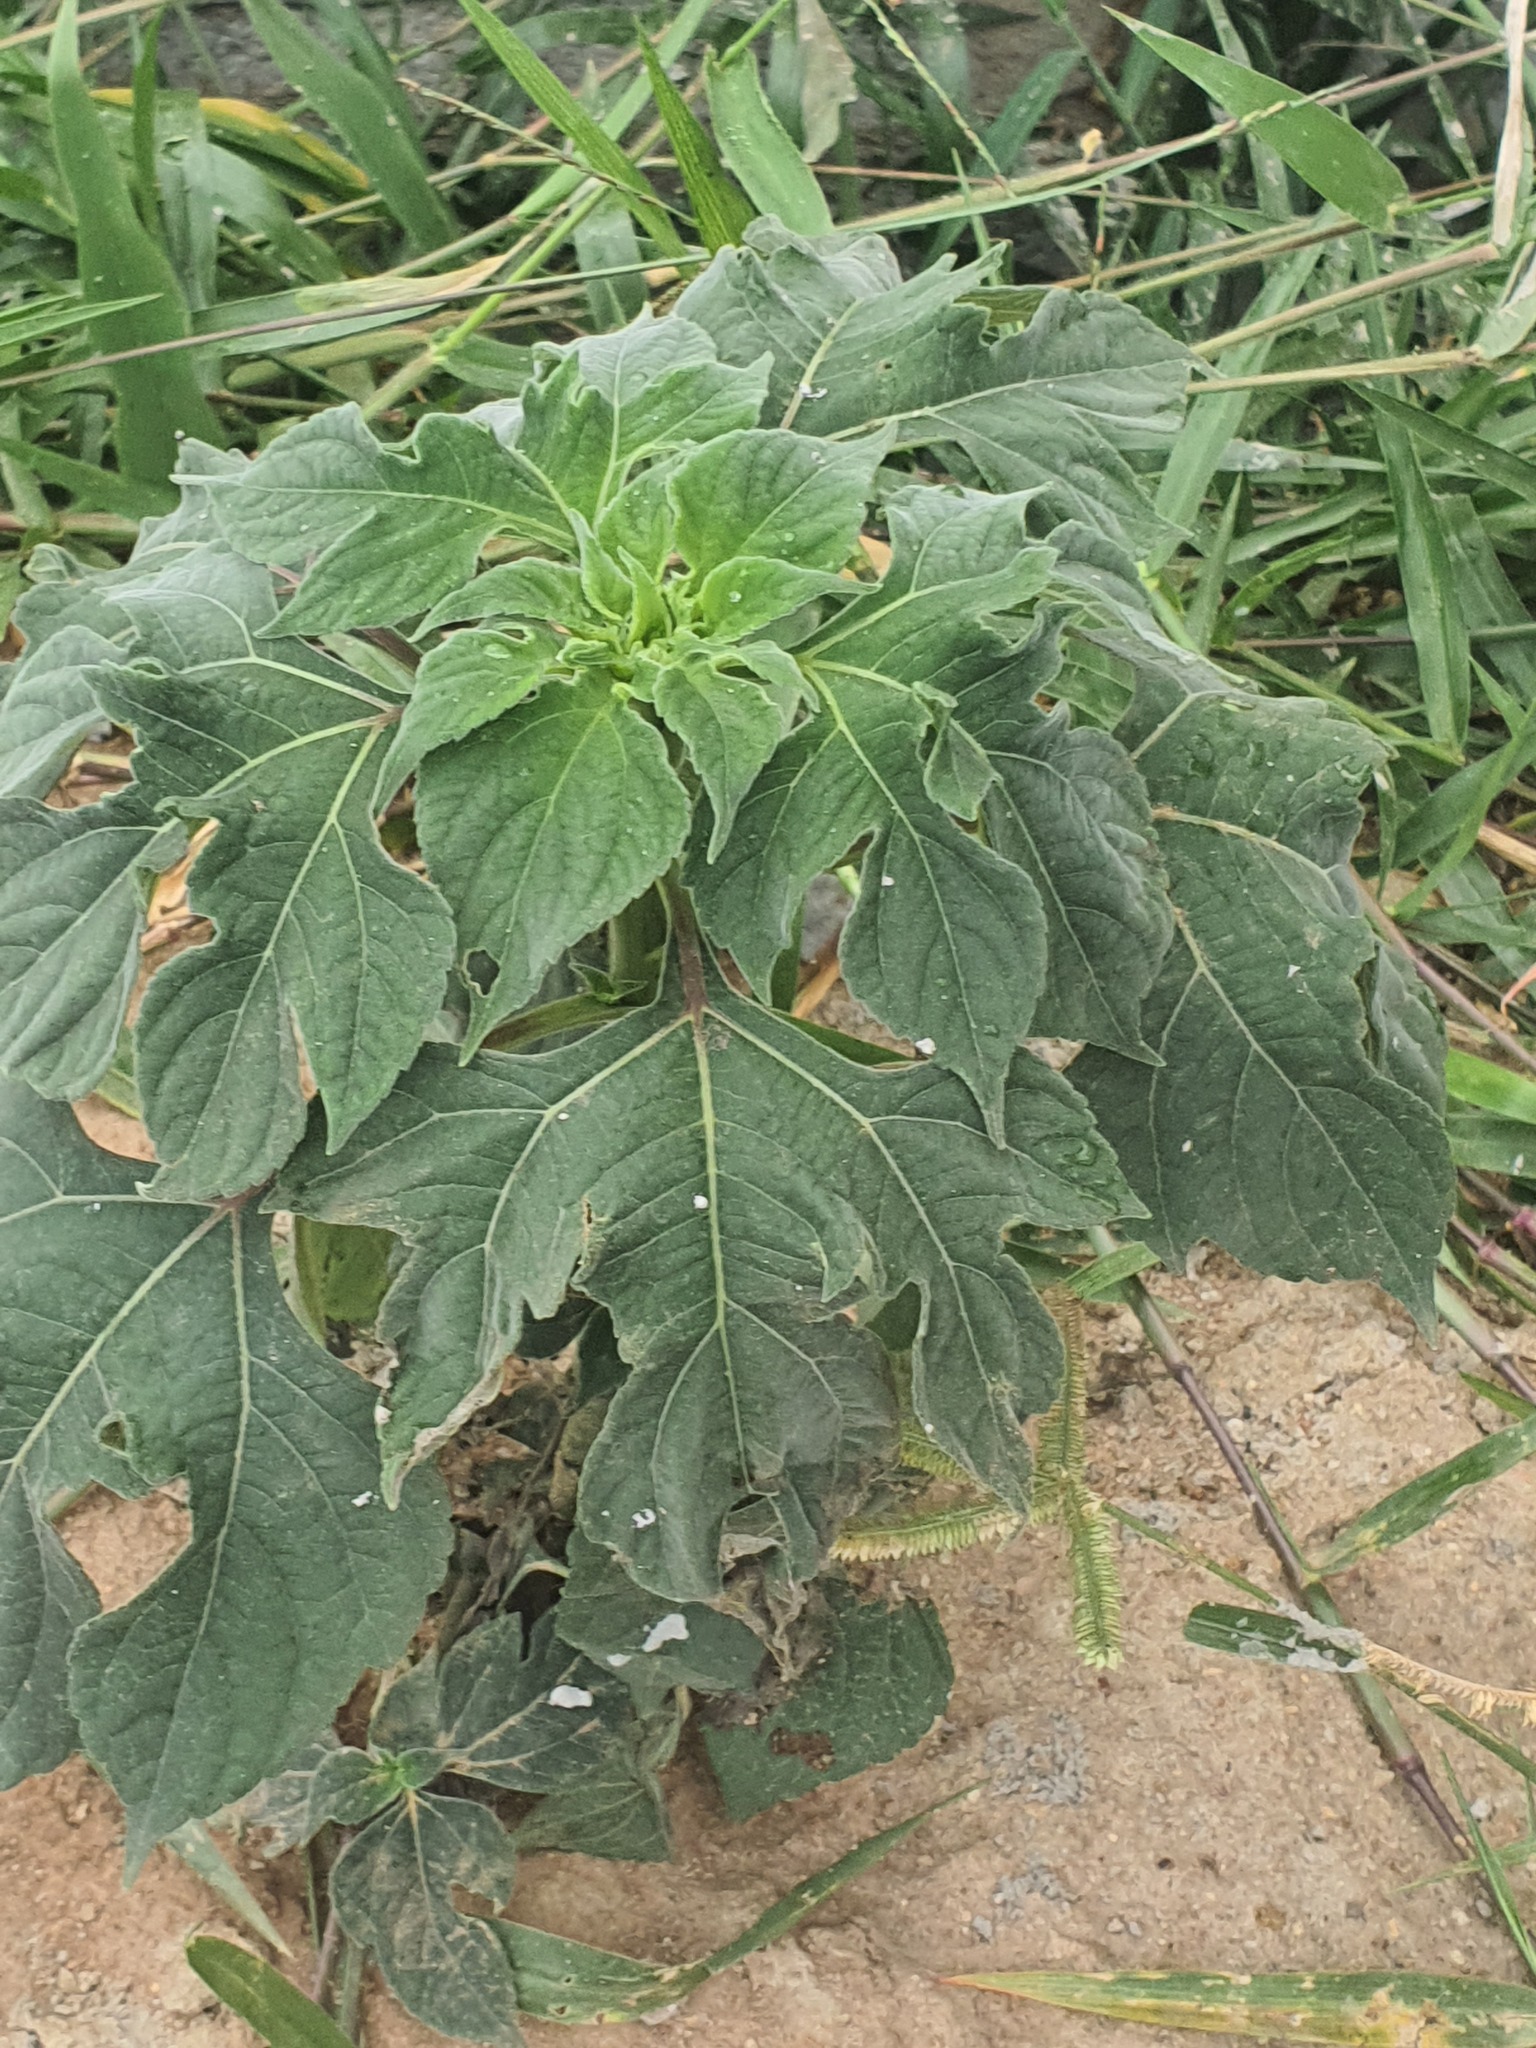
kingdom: Plantae
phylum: Tracheophyta
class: Magnoliopsida
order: Asterales
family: Asteraceae
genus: Tithonia
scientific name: Tithonia diversifolia
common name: Tree marigold
